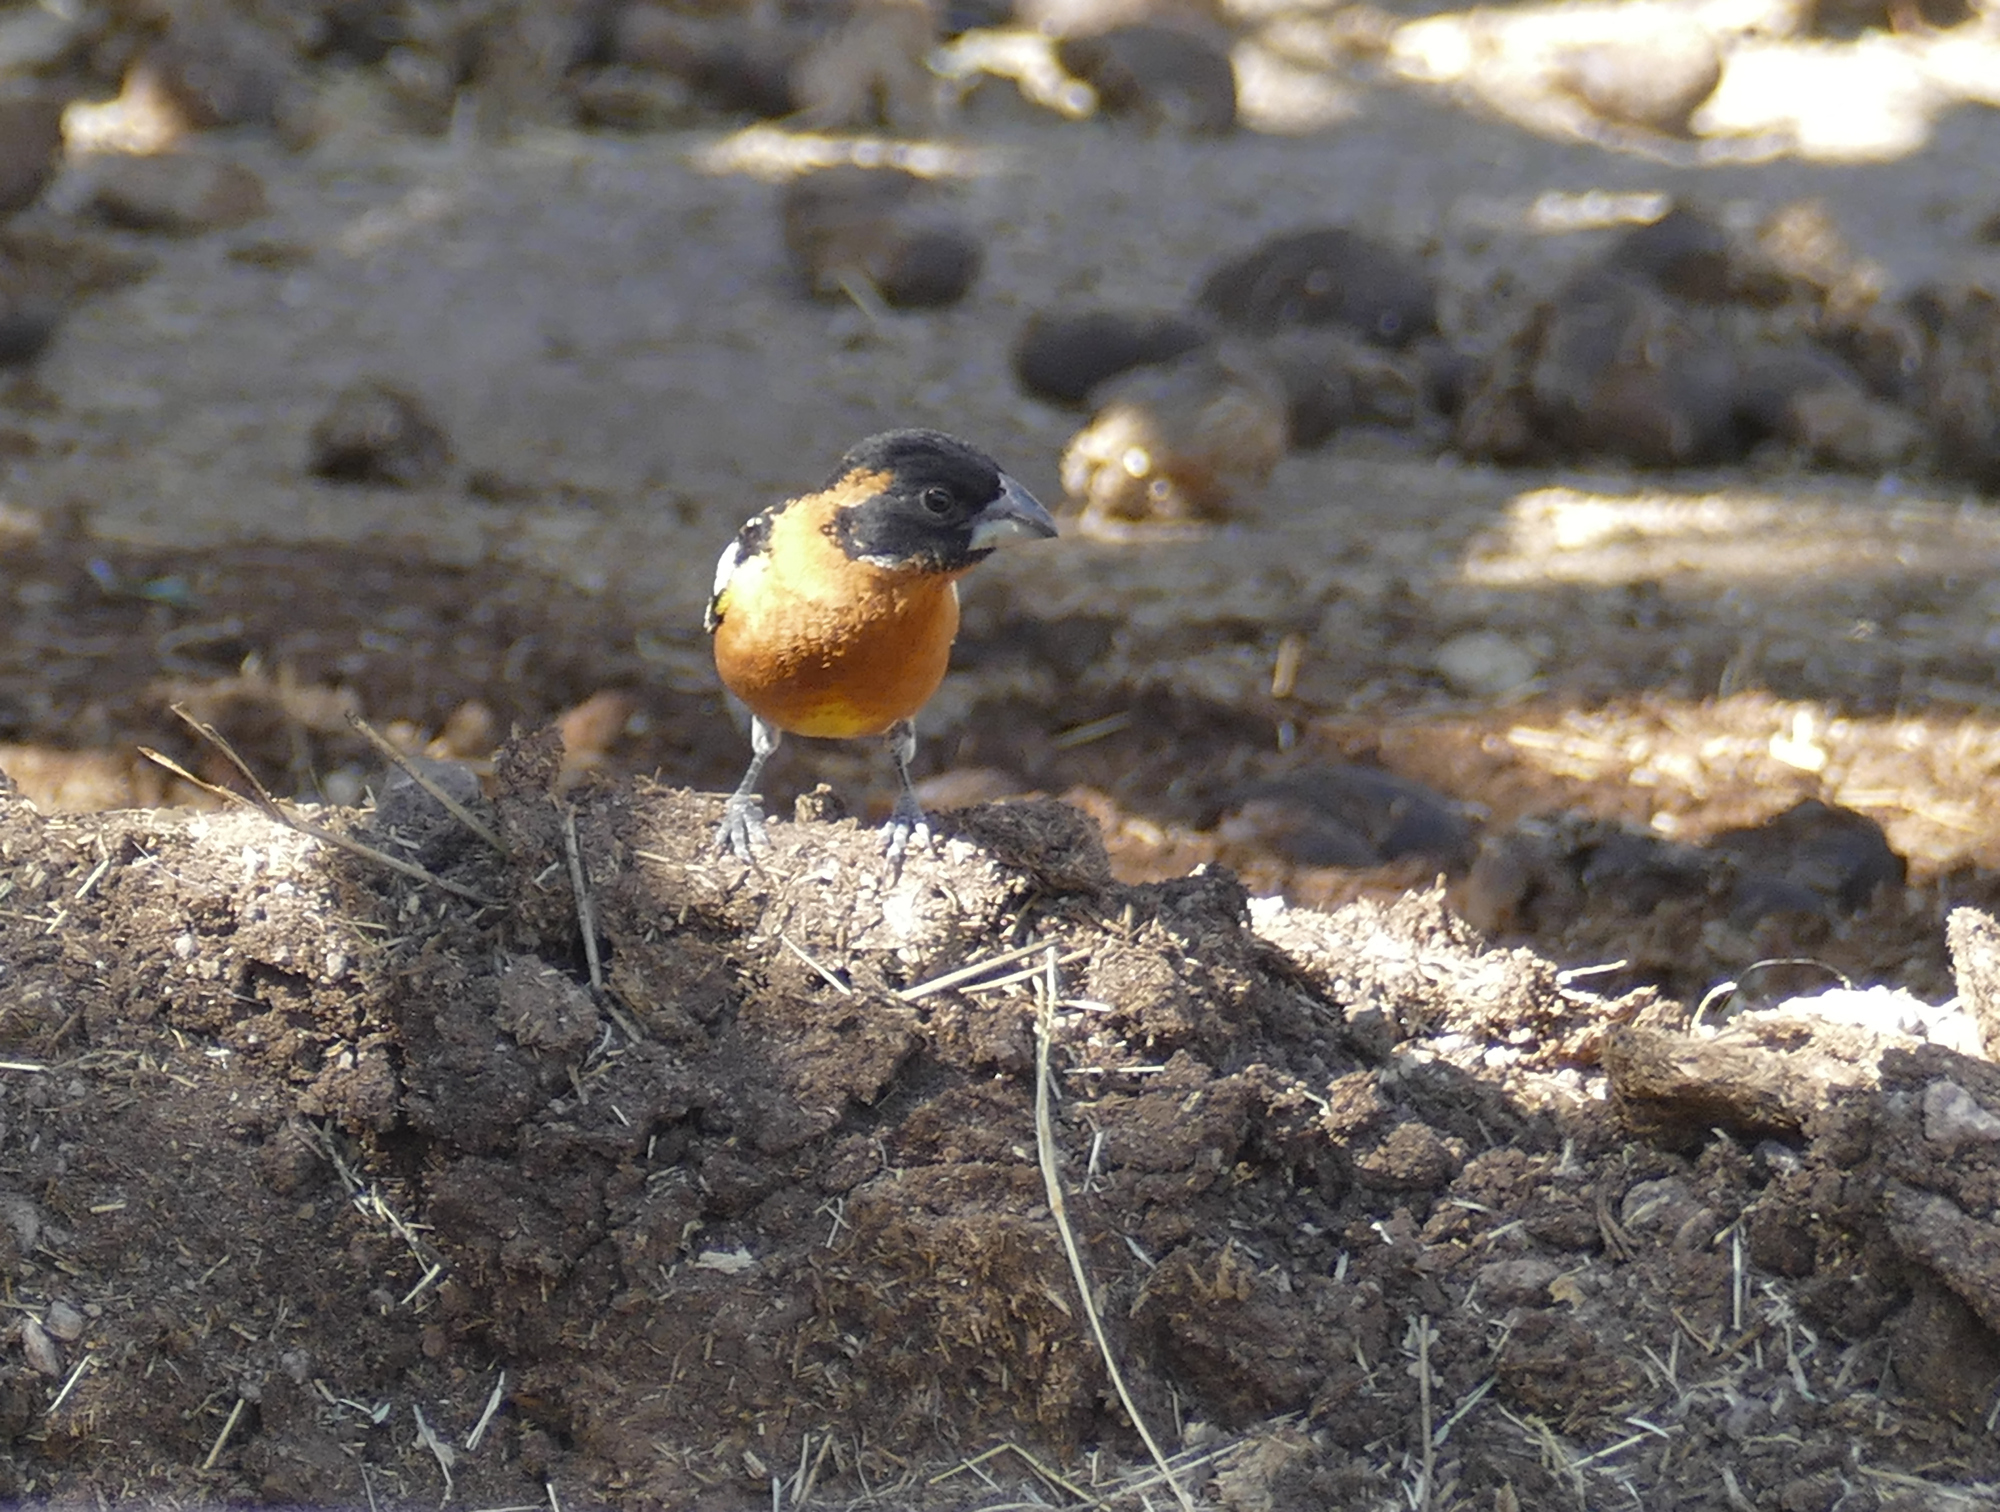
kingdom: Animalia
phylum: Chordata
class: Aves
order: Passeriformes
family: Cardinalidae
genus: Pheucticus
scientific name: Pheucticus melanocephalus
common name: Black-headed grosbeak
